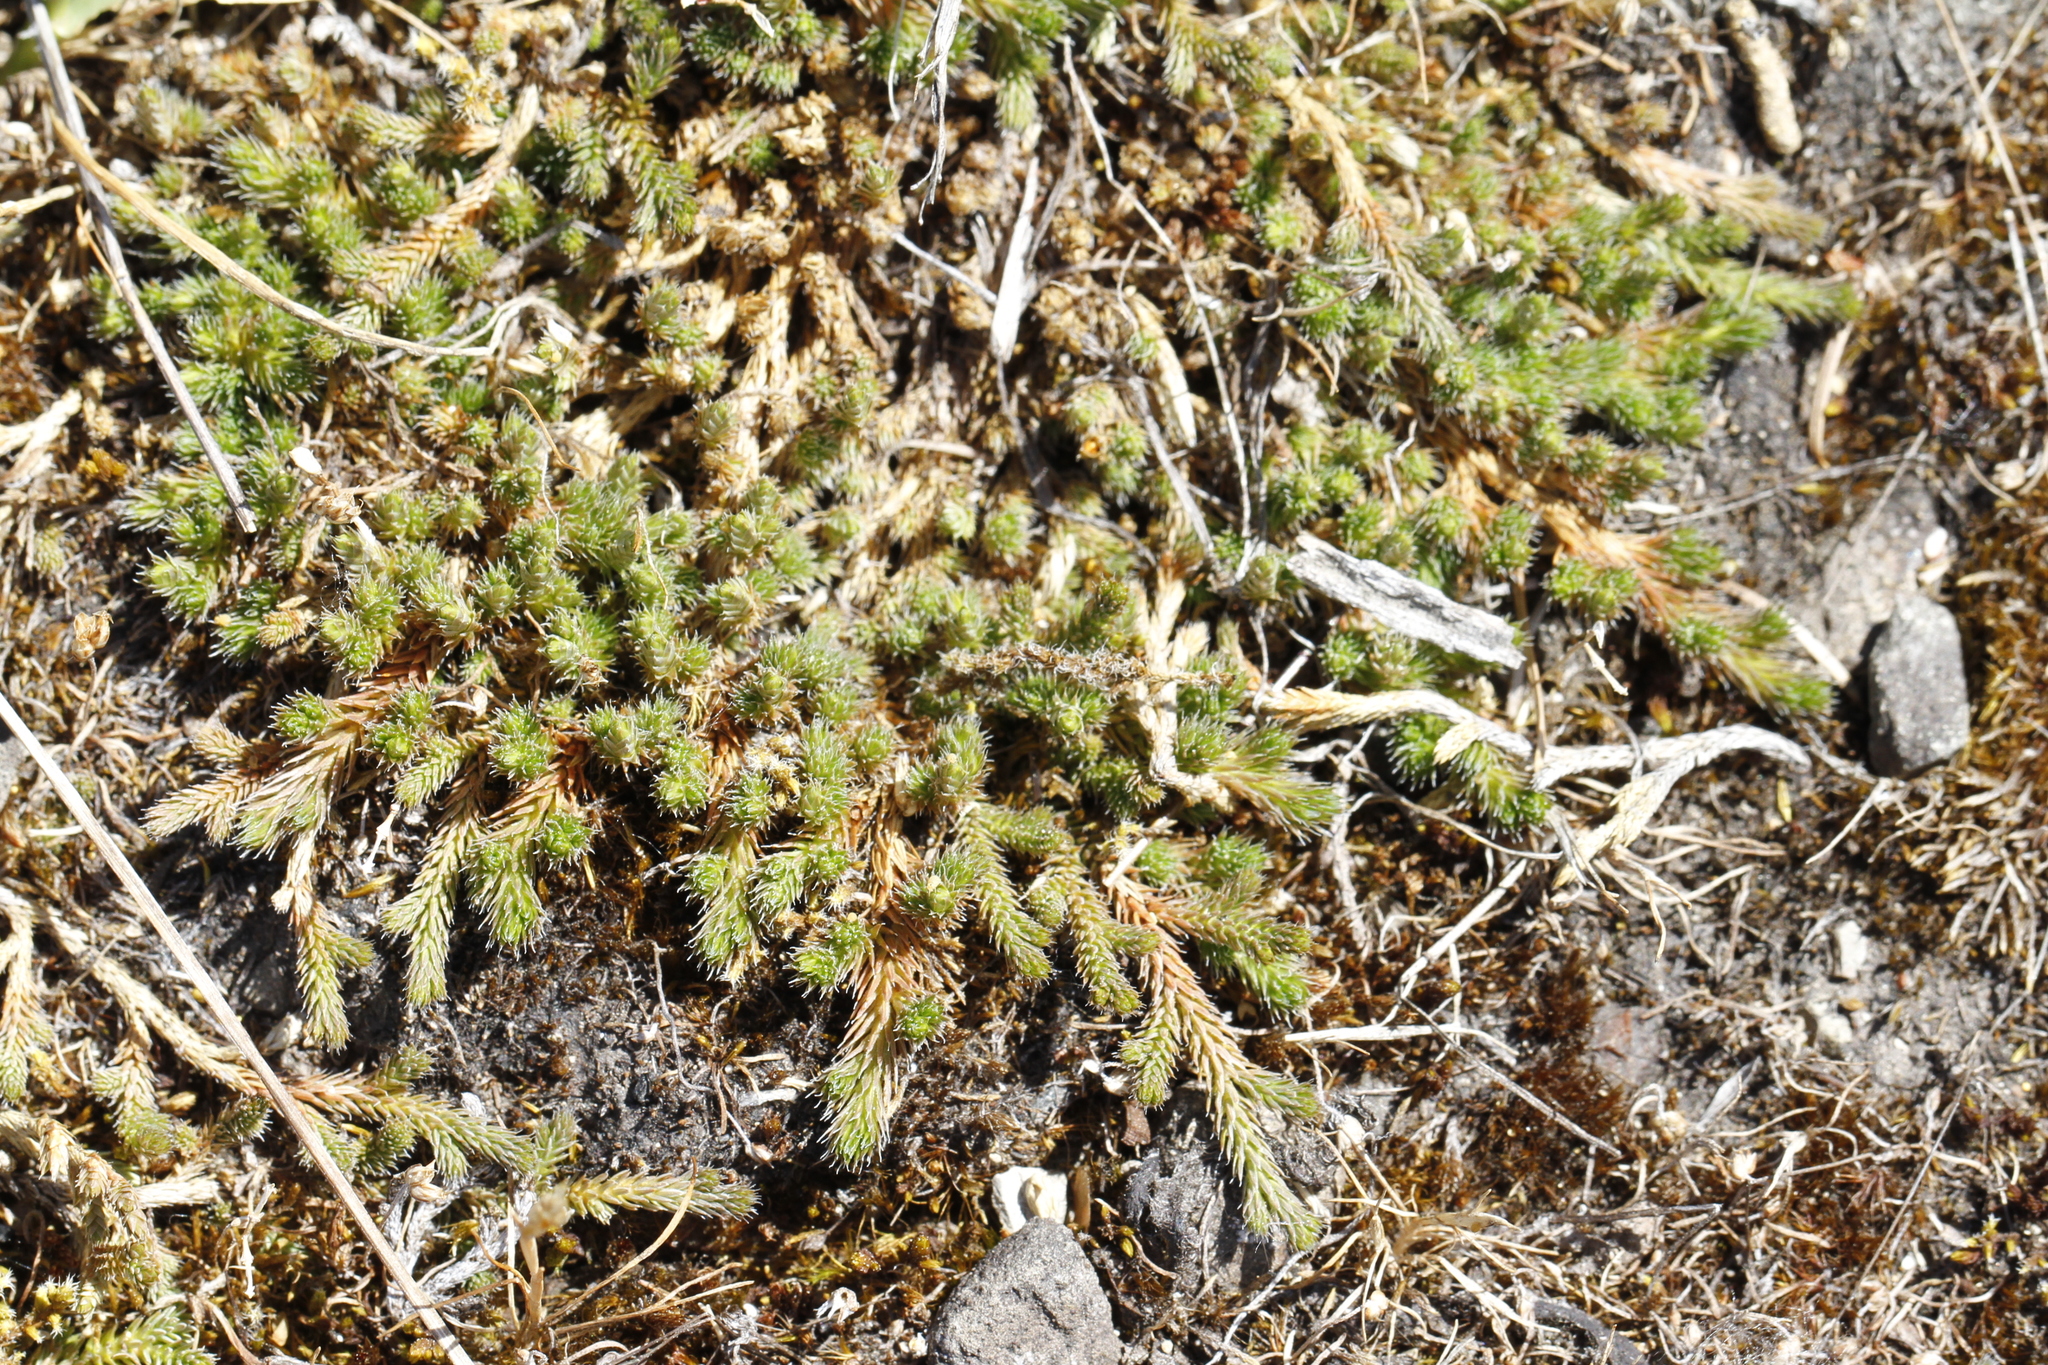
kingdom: Plantae
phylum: Tracheophyta
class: Lycopodiopsida
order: Selaginellales
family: Selaginellaceae
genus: Selaginella
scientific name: Selaginella wallacei
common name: Wallace's selaginella
